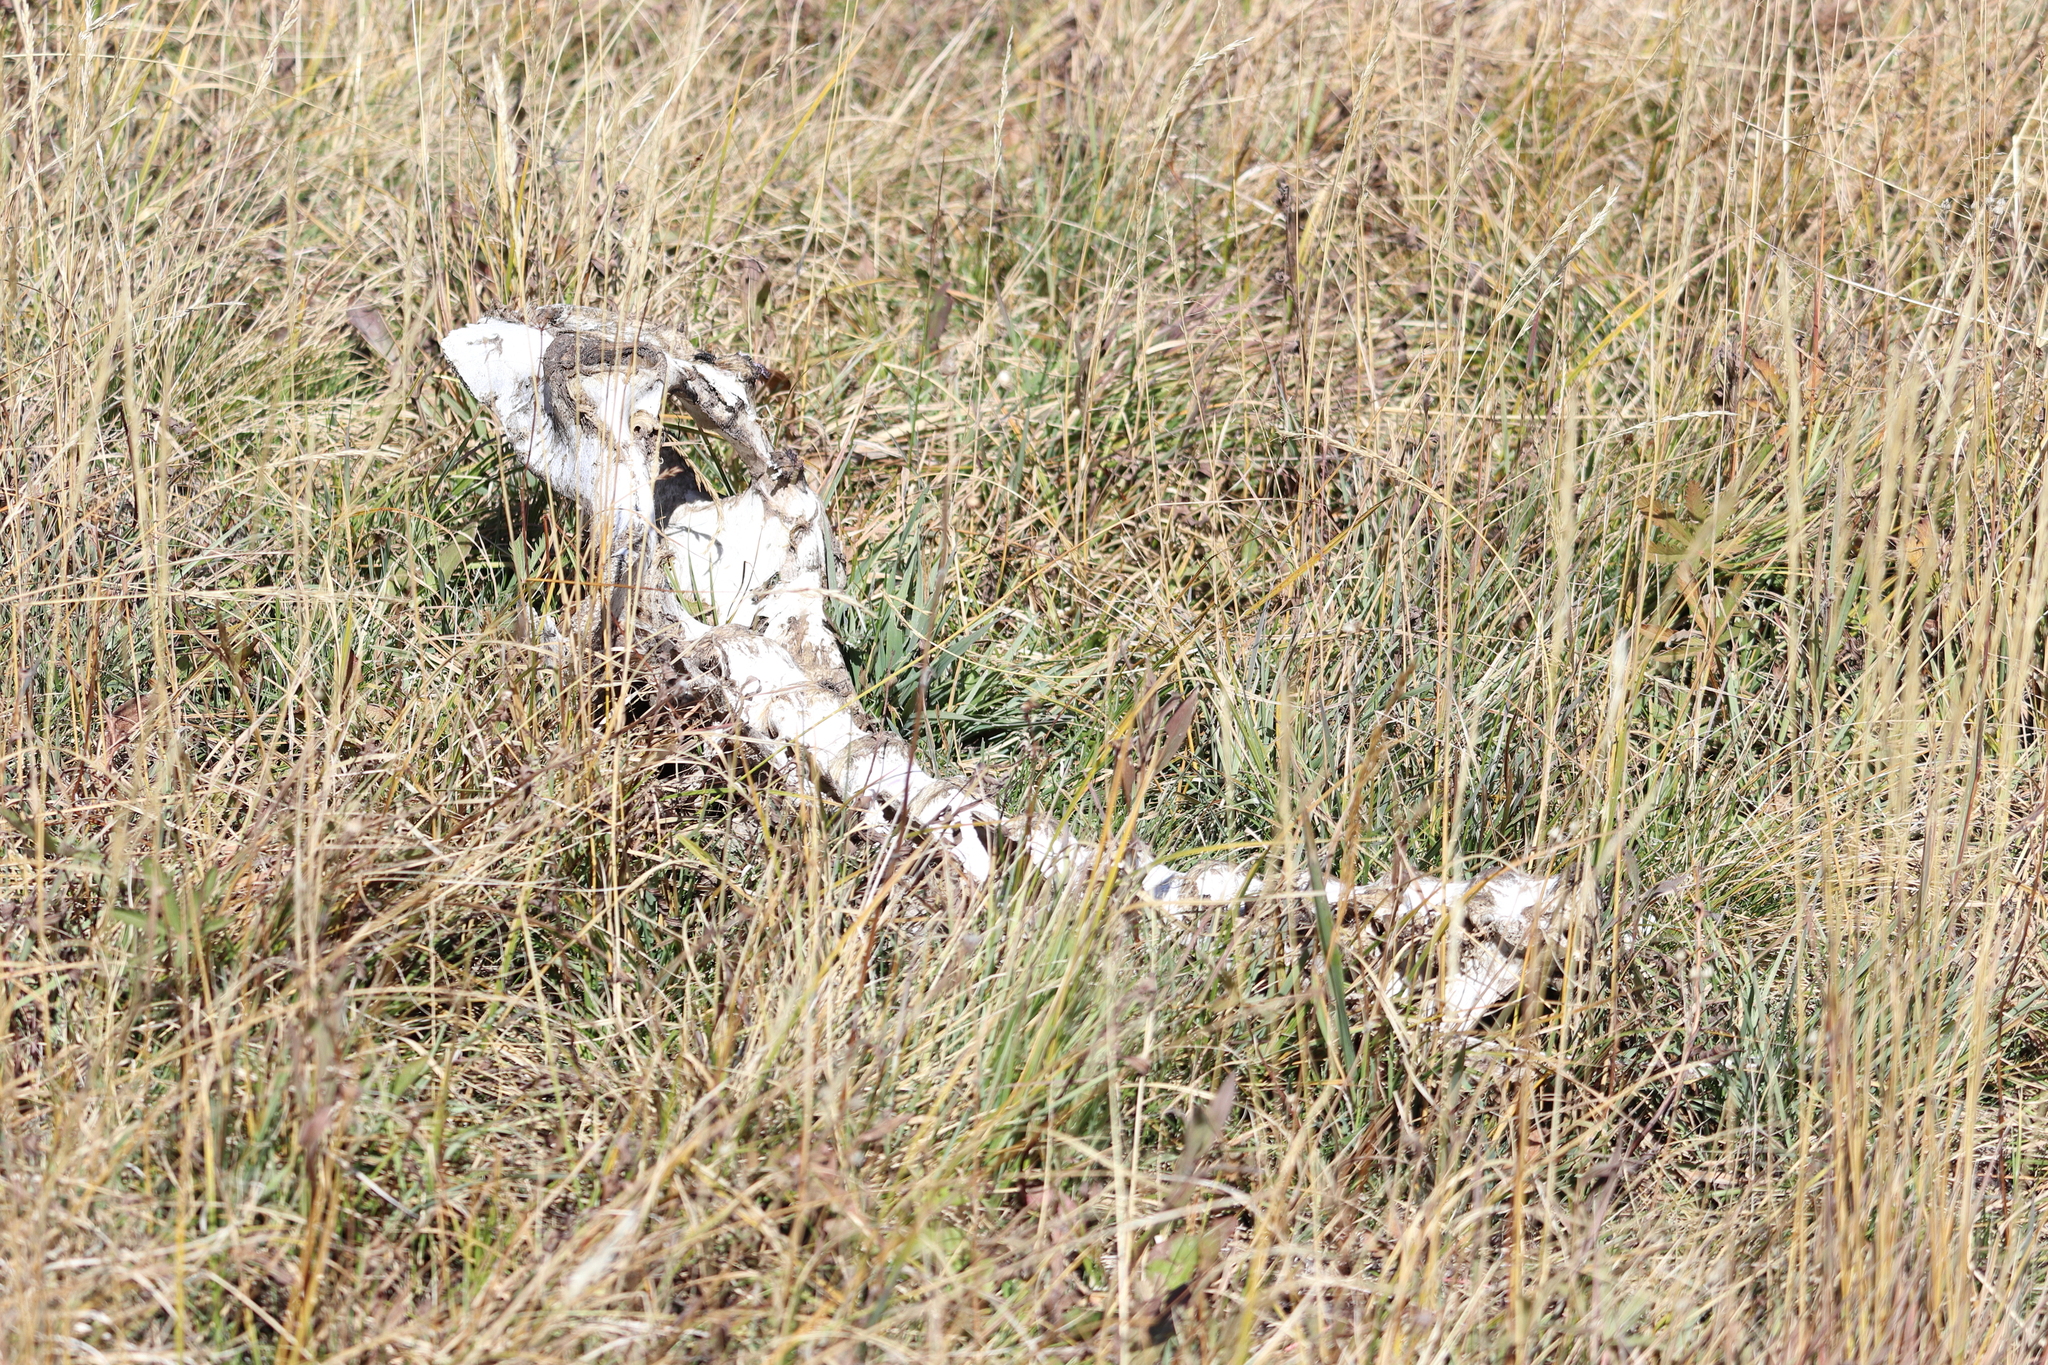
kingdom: Animalia
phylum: Chordata
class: Mammalia
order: Artiodactyla
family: Cervidae
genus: Cervus
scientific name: Cervus elaphus
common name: Red deer
